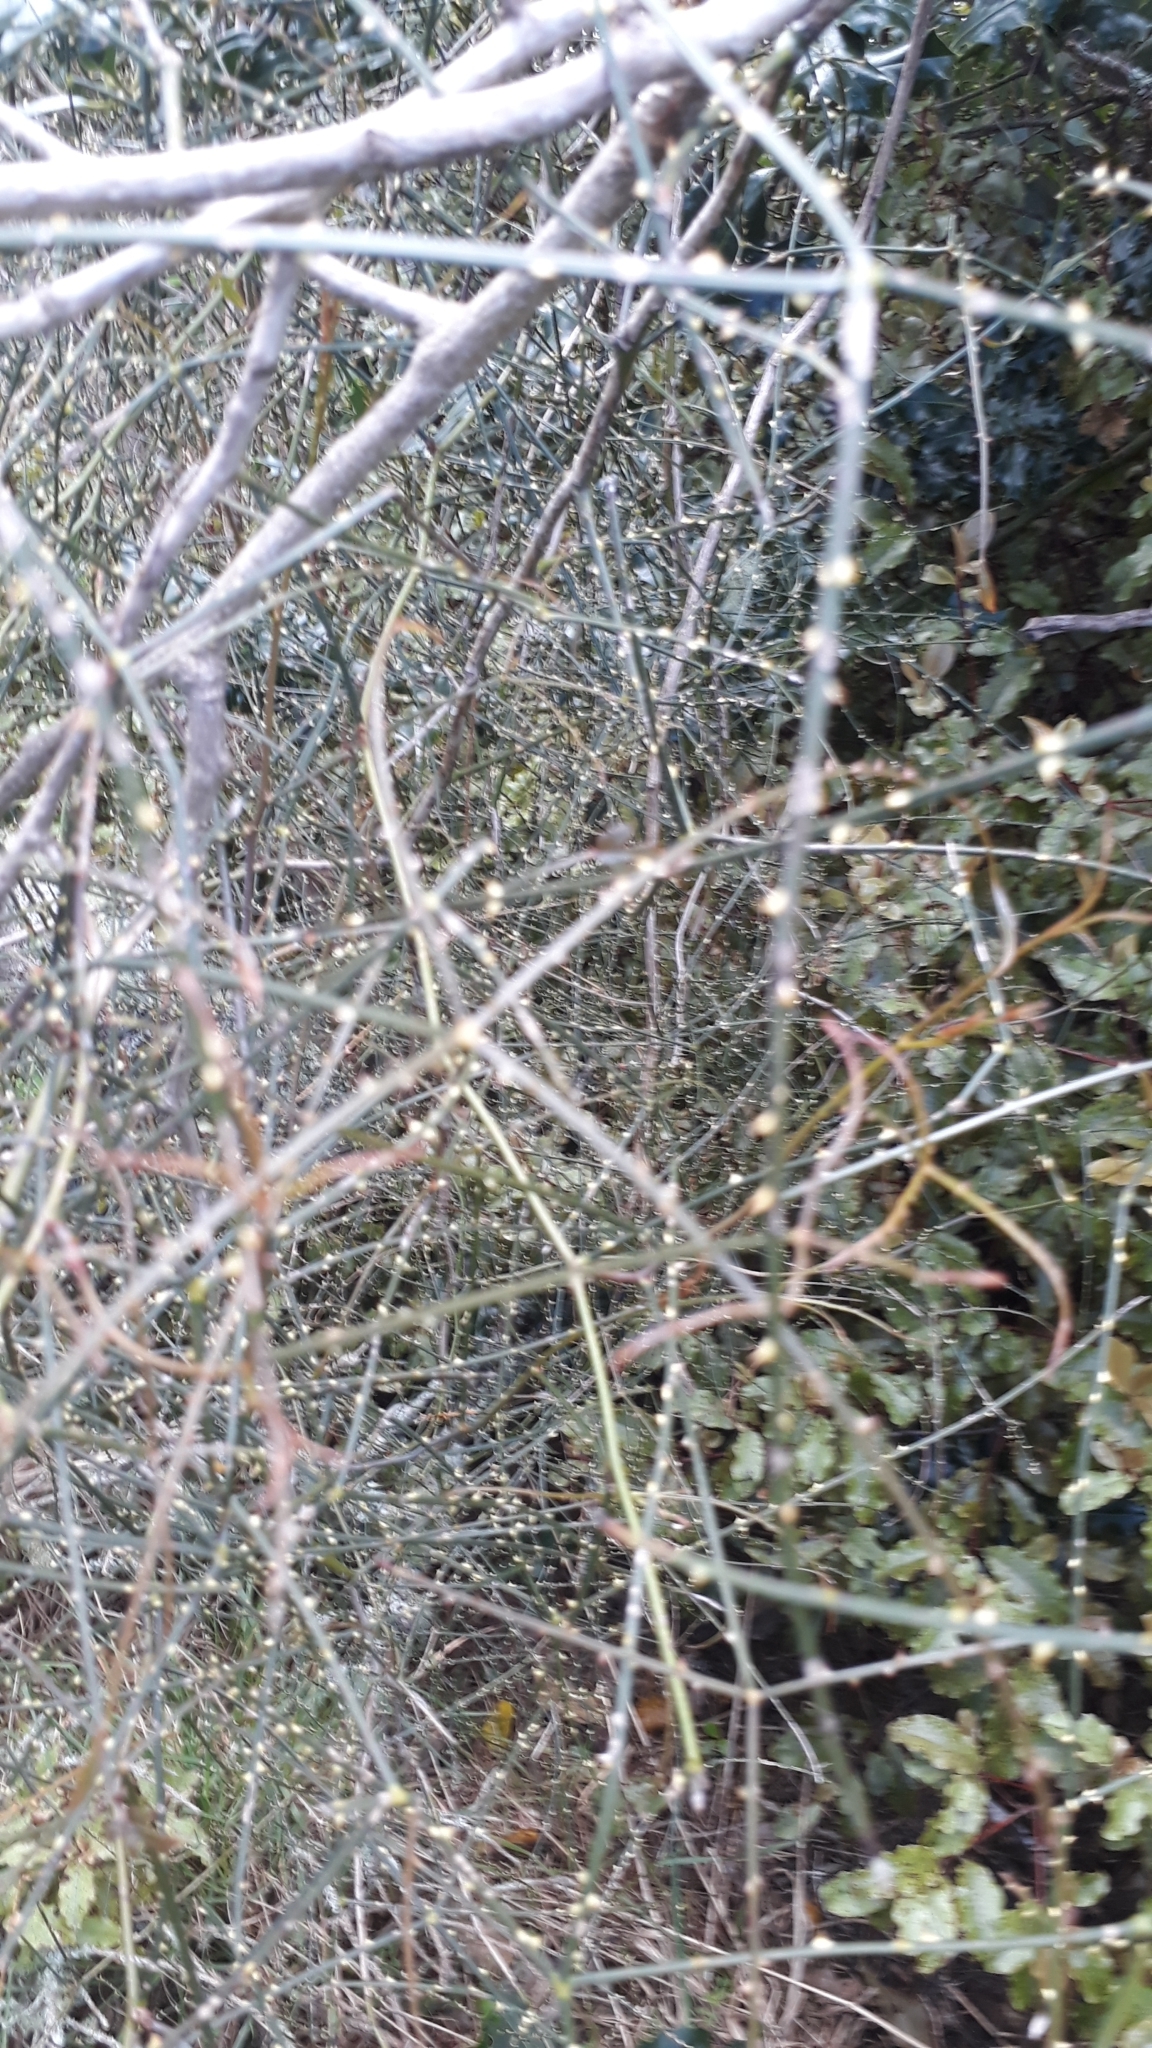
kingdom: Plantae
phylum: Tracheophyta
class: Magnoliopsida
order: Rosales
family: Rosaceae
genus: Rubus
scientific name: Rubus squarrosus
